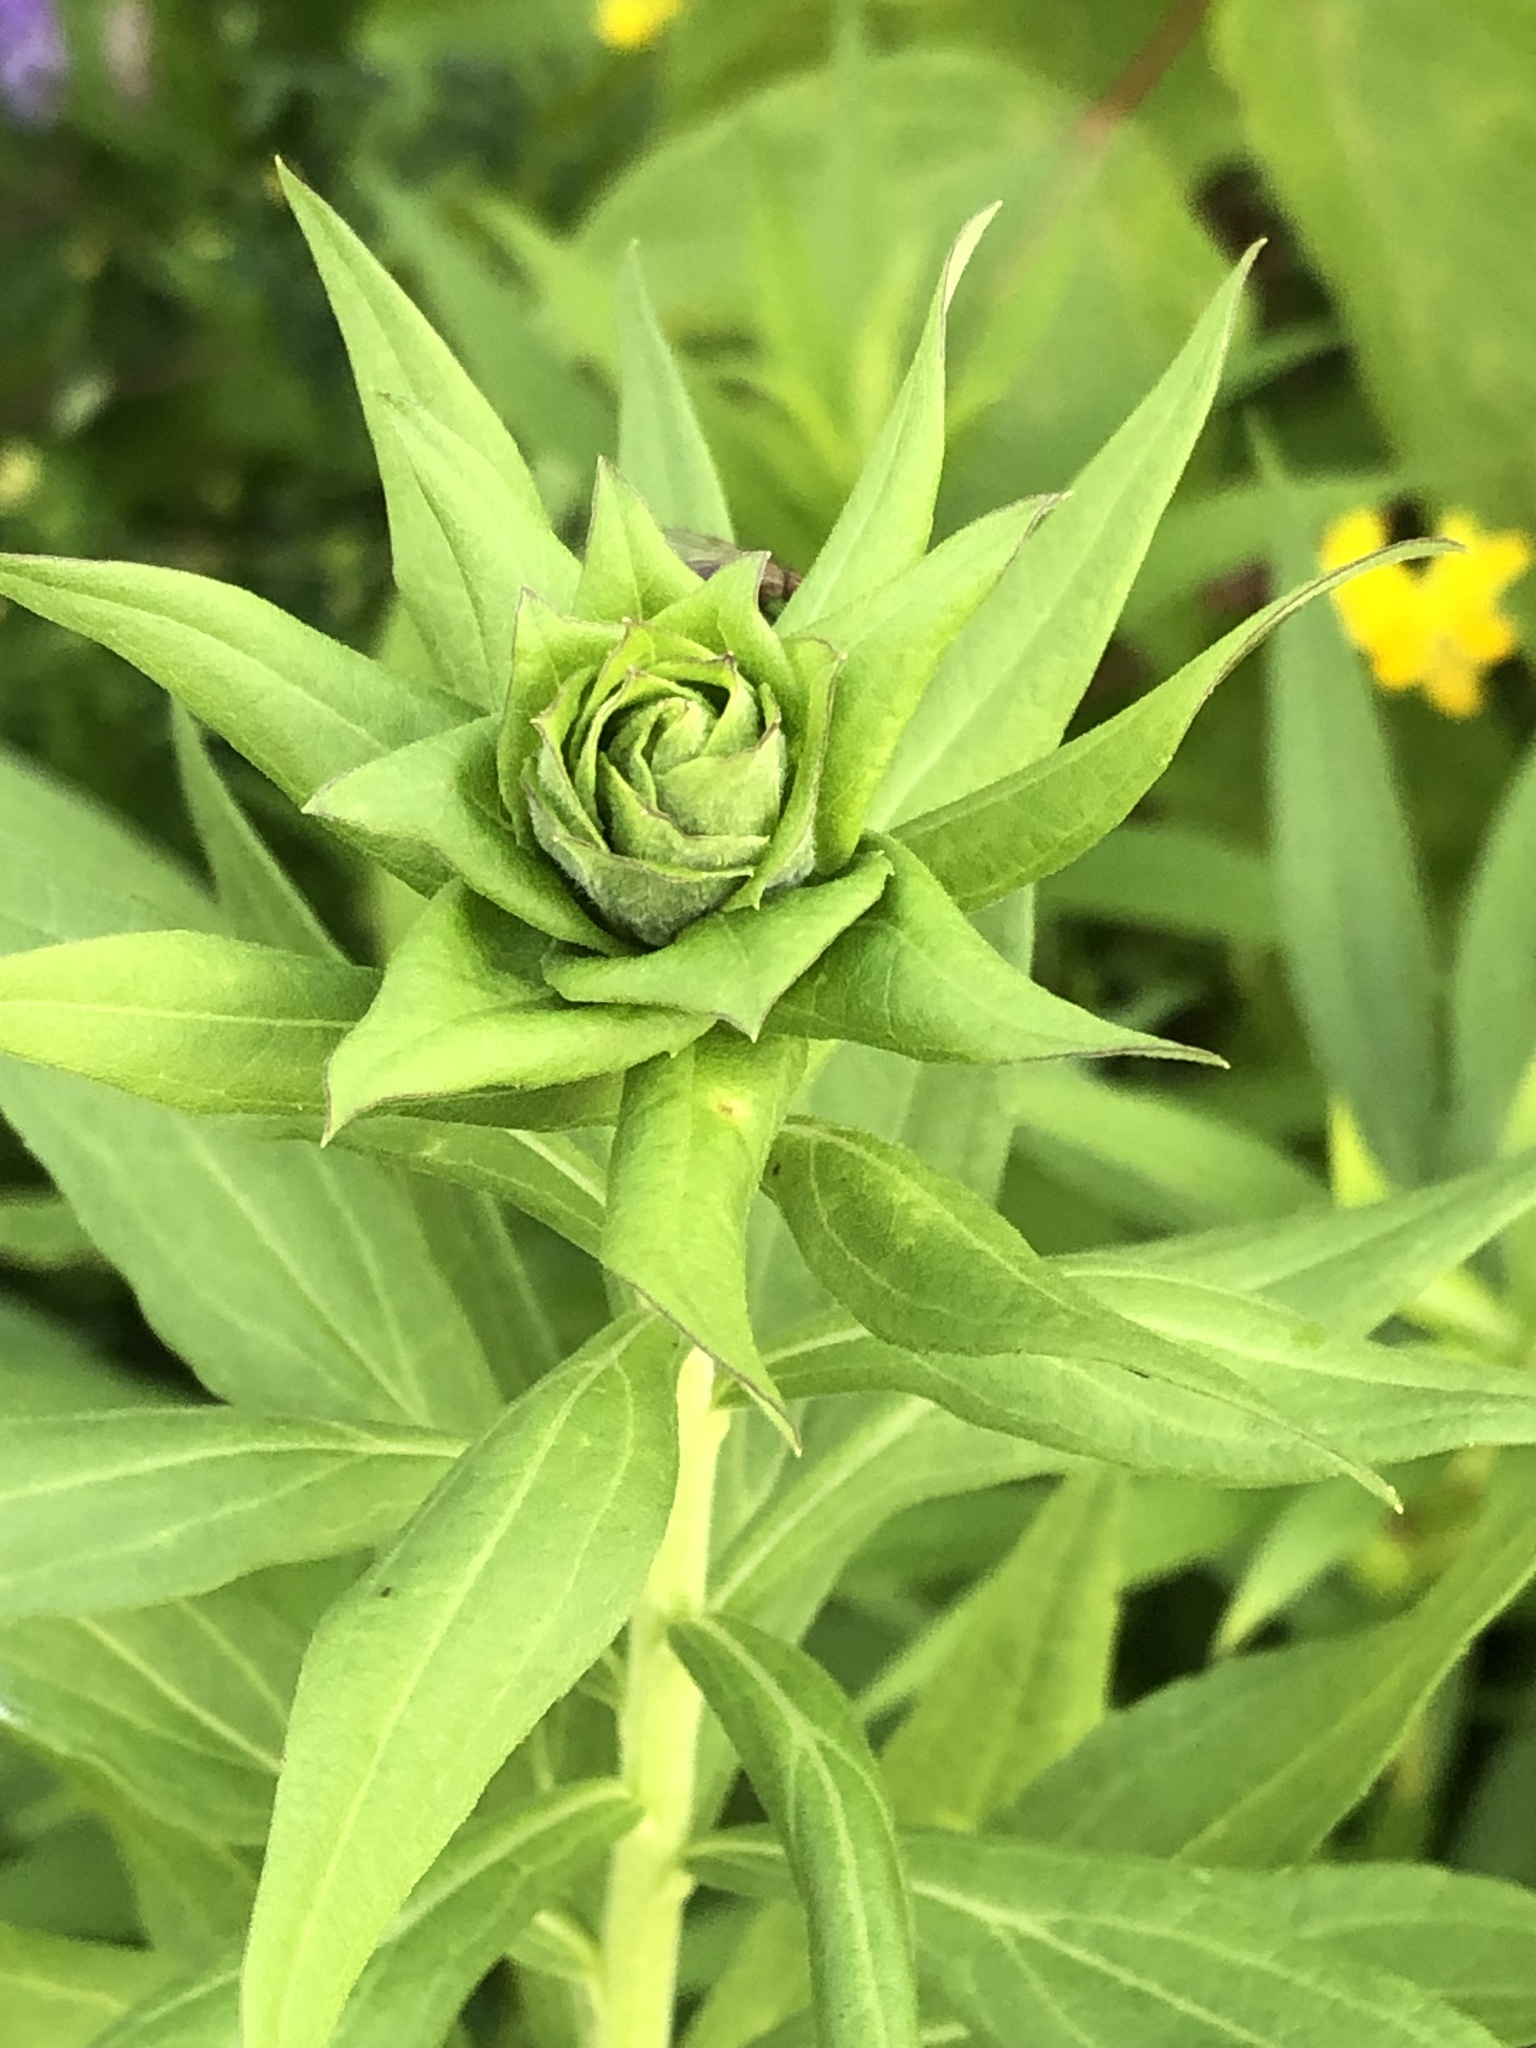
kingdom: Animalia
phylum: Arthropoda
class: Insecta
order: Diptera
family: Cecidomyiidae
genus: Rhopalomyia
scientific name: Rhopalomyia solidaginis
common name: Goldenrod bunch gall midge
